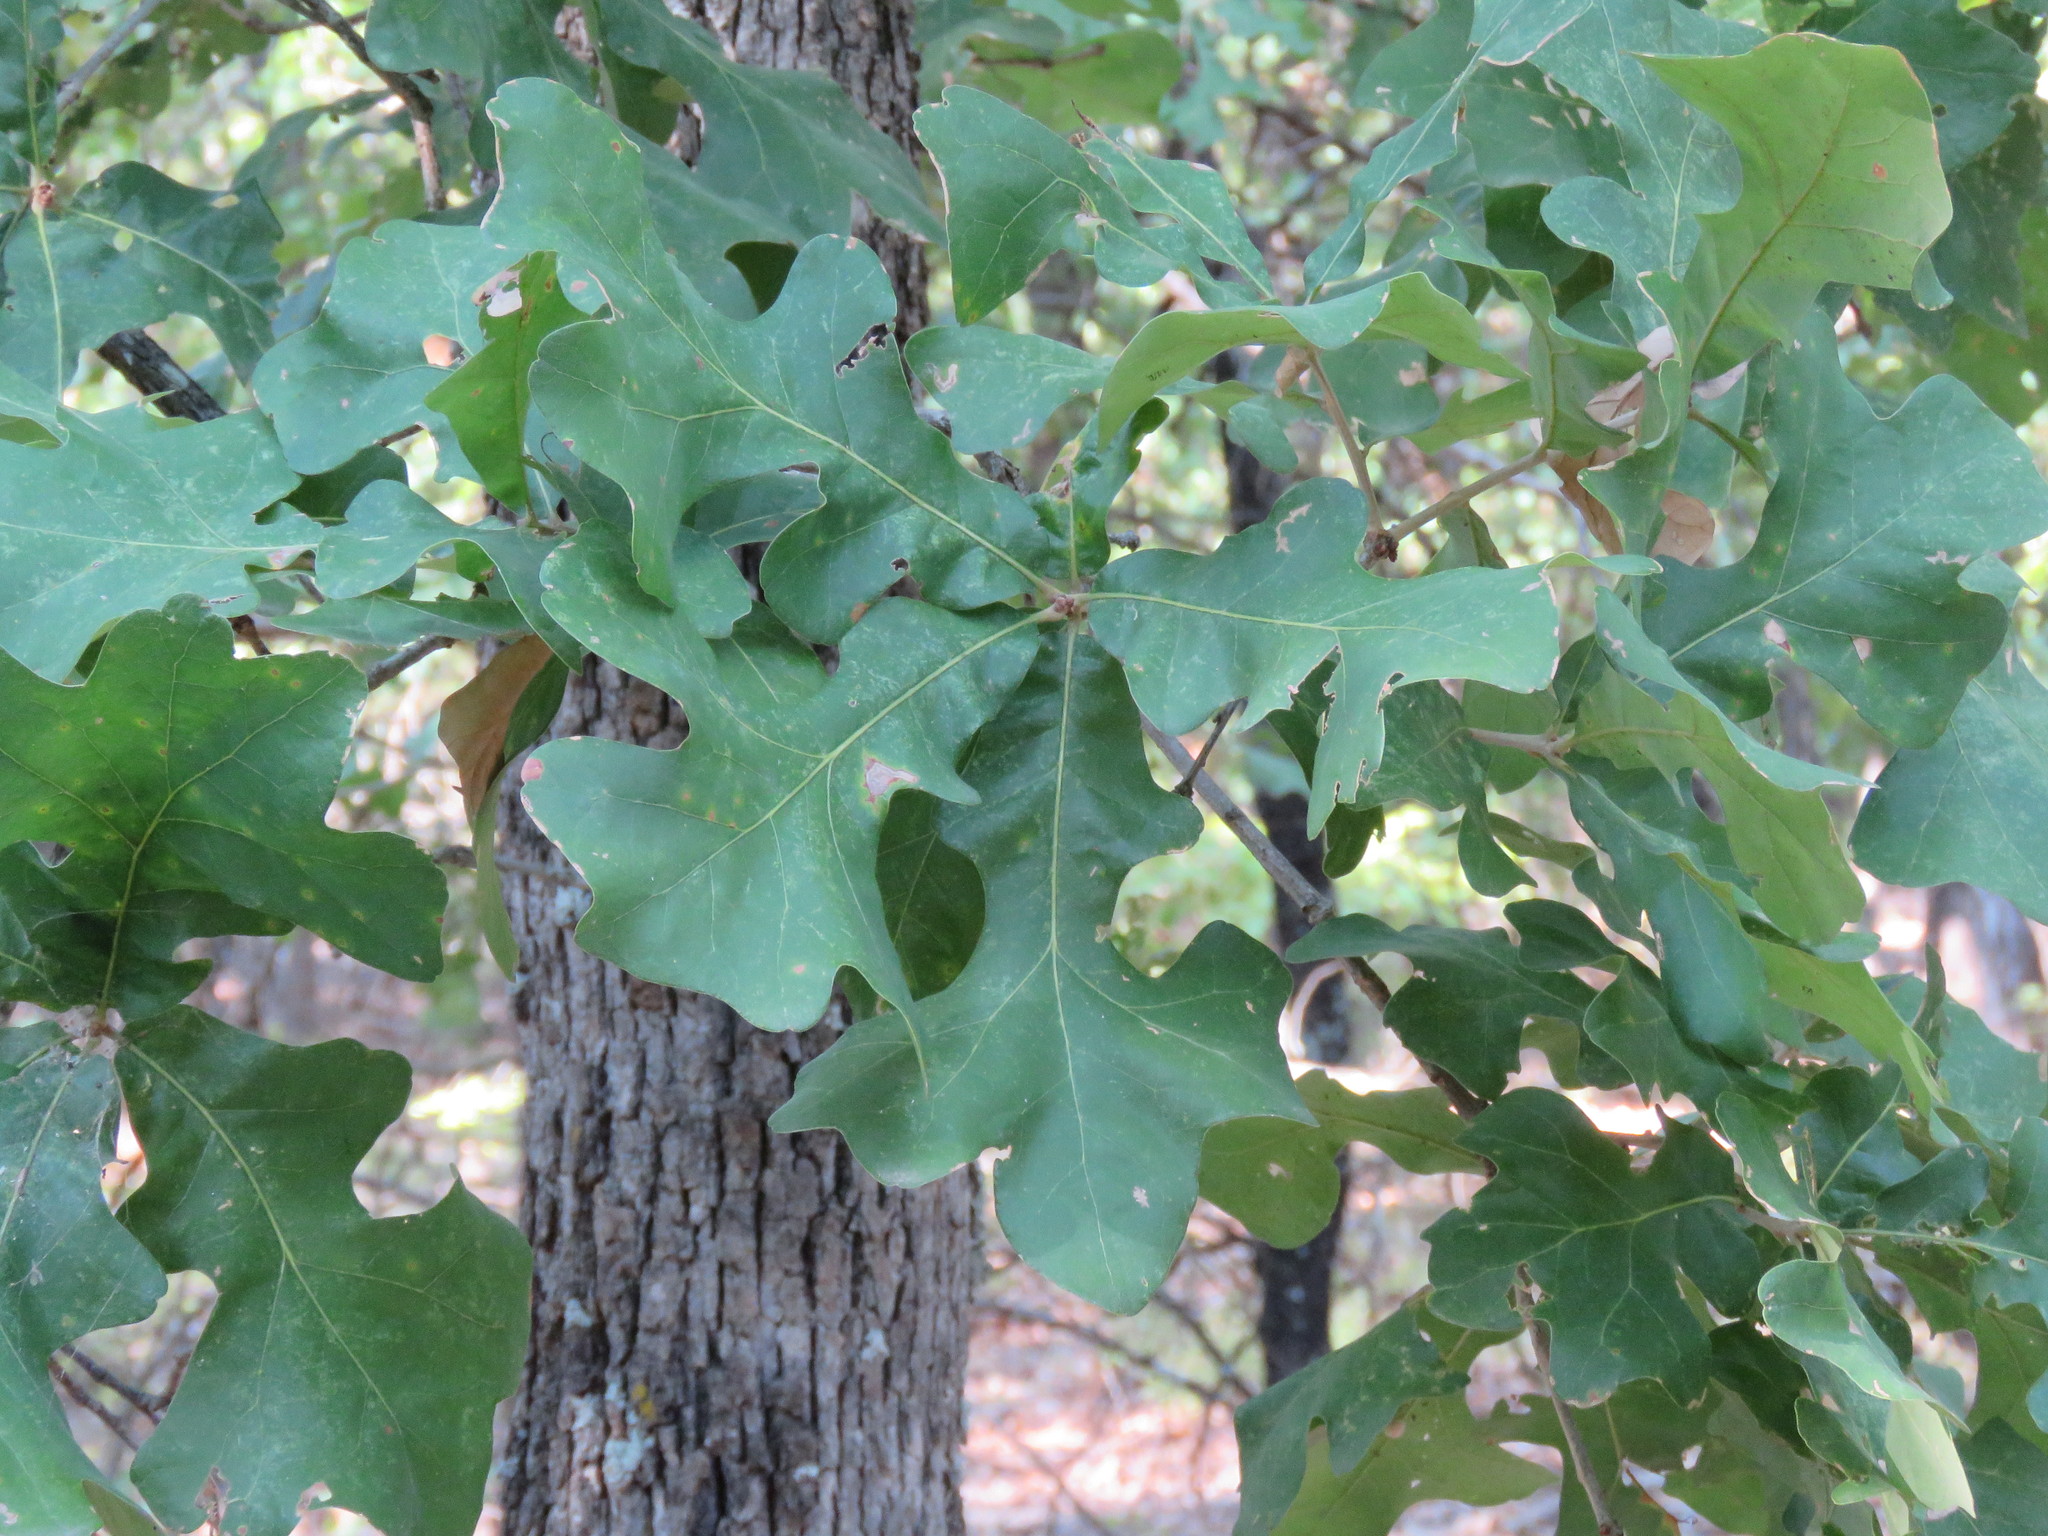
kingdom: Plantae
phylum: Tracheophyta
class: Magnoliopsida
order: Fagales
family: Fagaceae
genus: Quercus
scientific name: Quercus stellata
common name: Post oak
